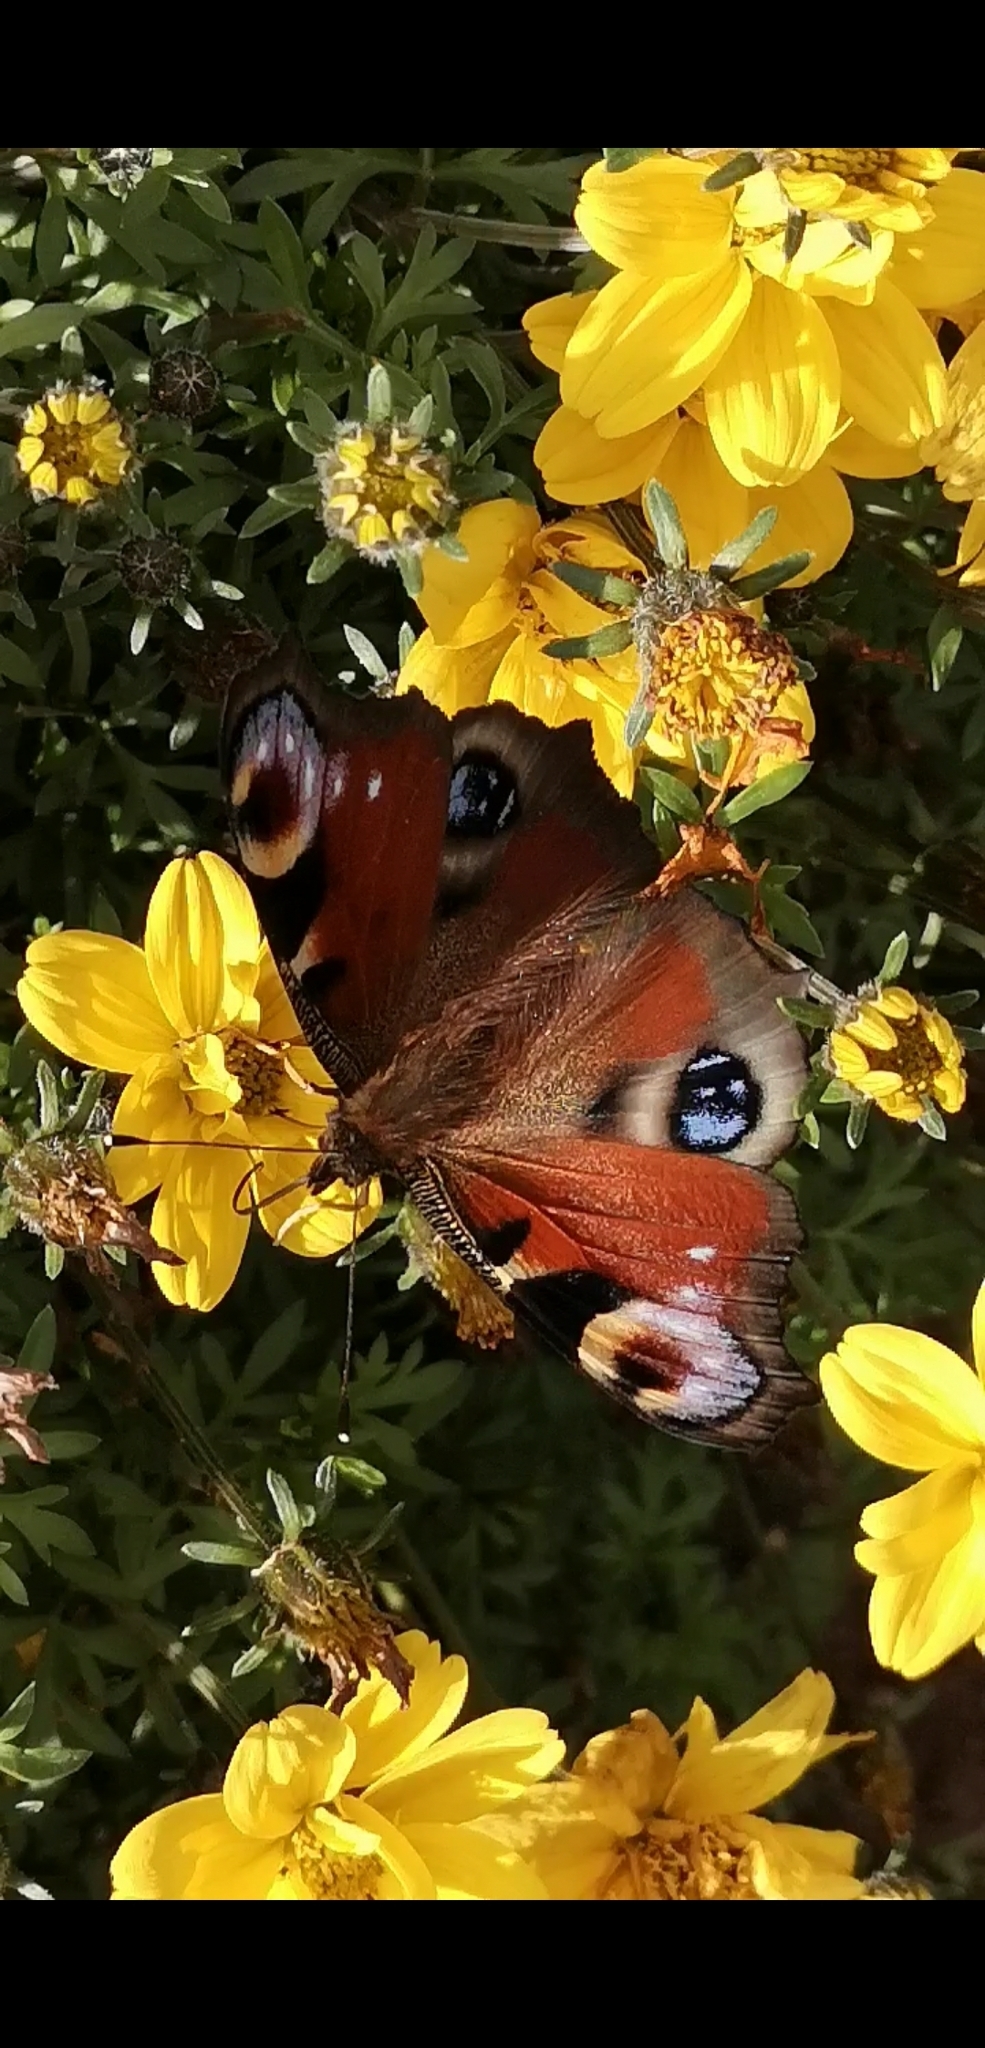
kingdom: Animalia
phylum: Arthropoda
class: Insecta
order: Lepidoptera
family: Nymphalidae
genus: Aglais
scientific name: Aglais io
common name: Peacock
